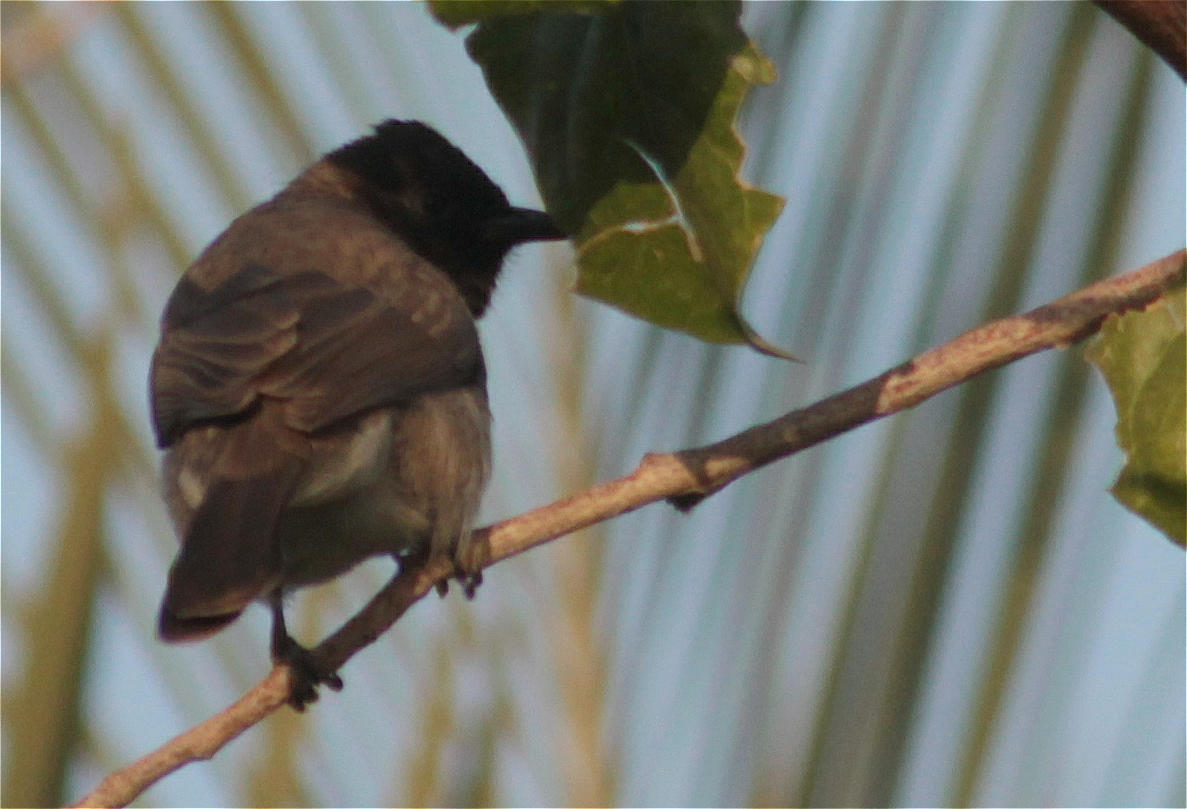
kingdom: Animalia
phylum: Chordata
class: Aves
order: Passeriformes
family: Pycnonotidae
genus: Pycnonotus
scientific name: Pycnonotus barbatus
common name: Common bulbul
